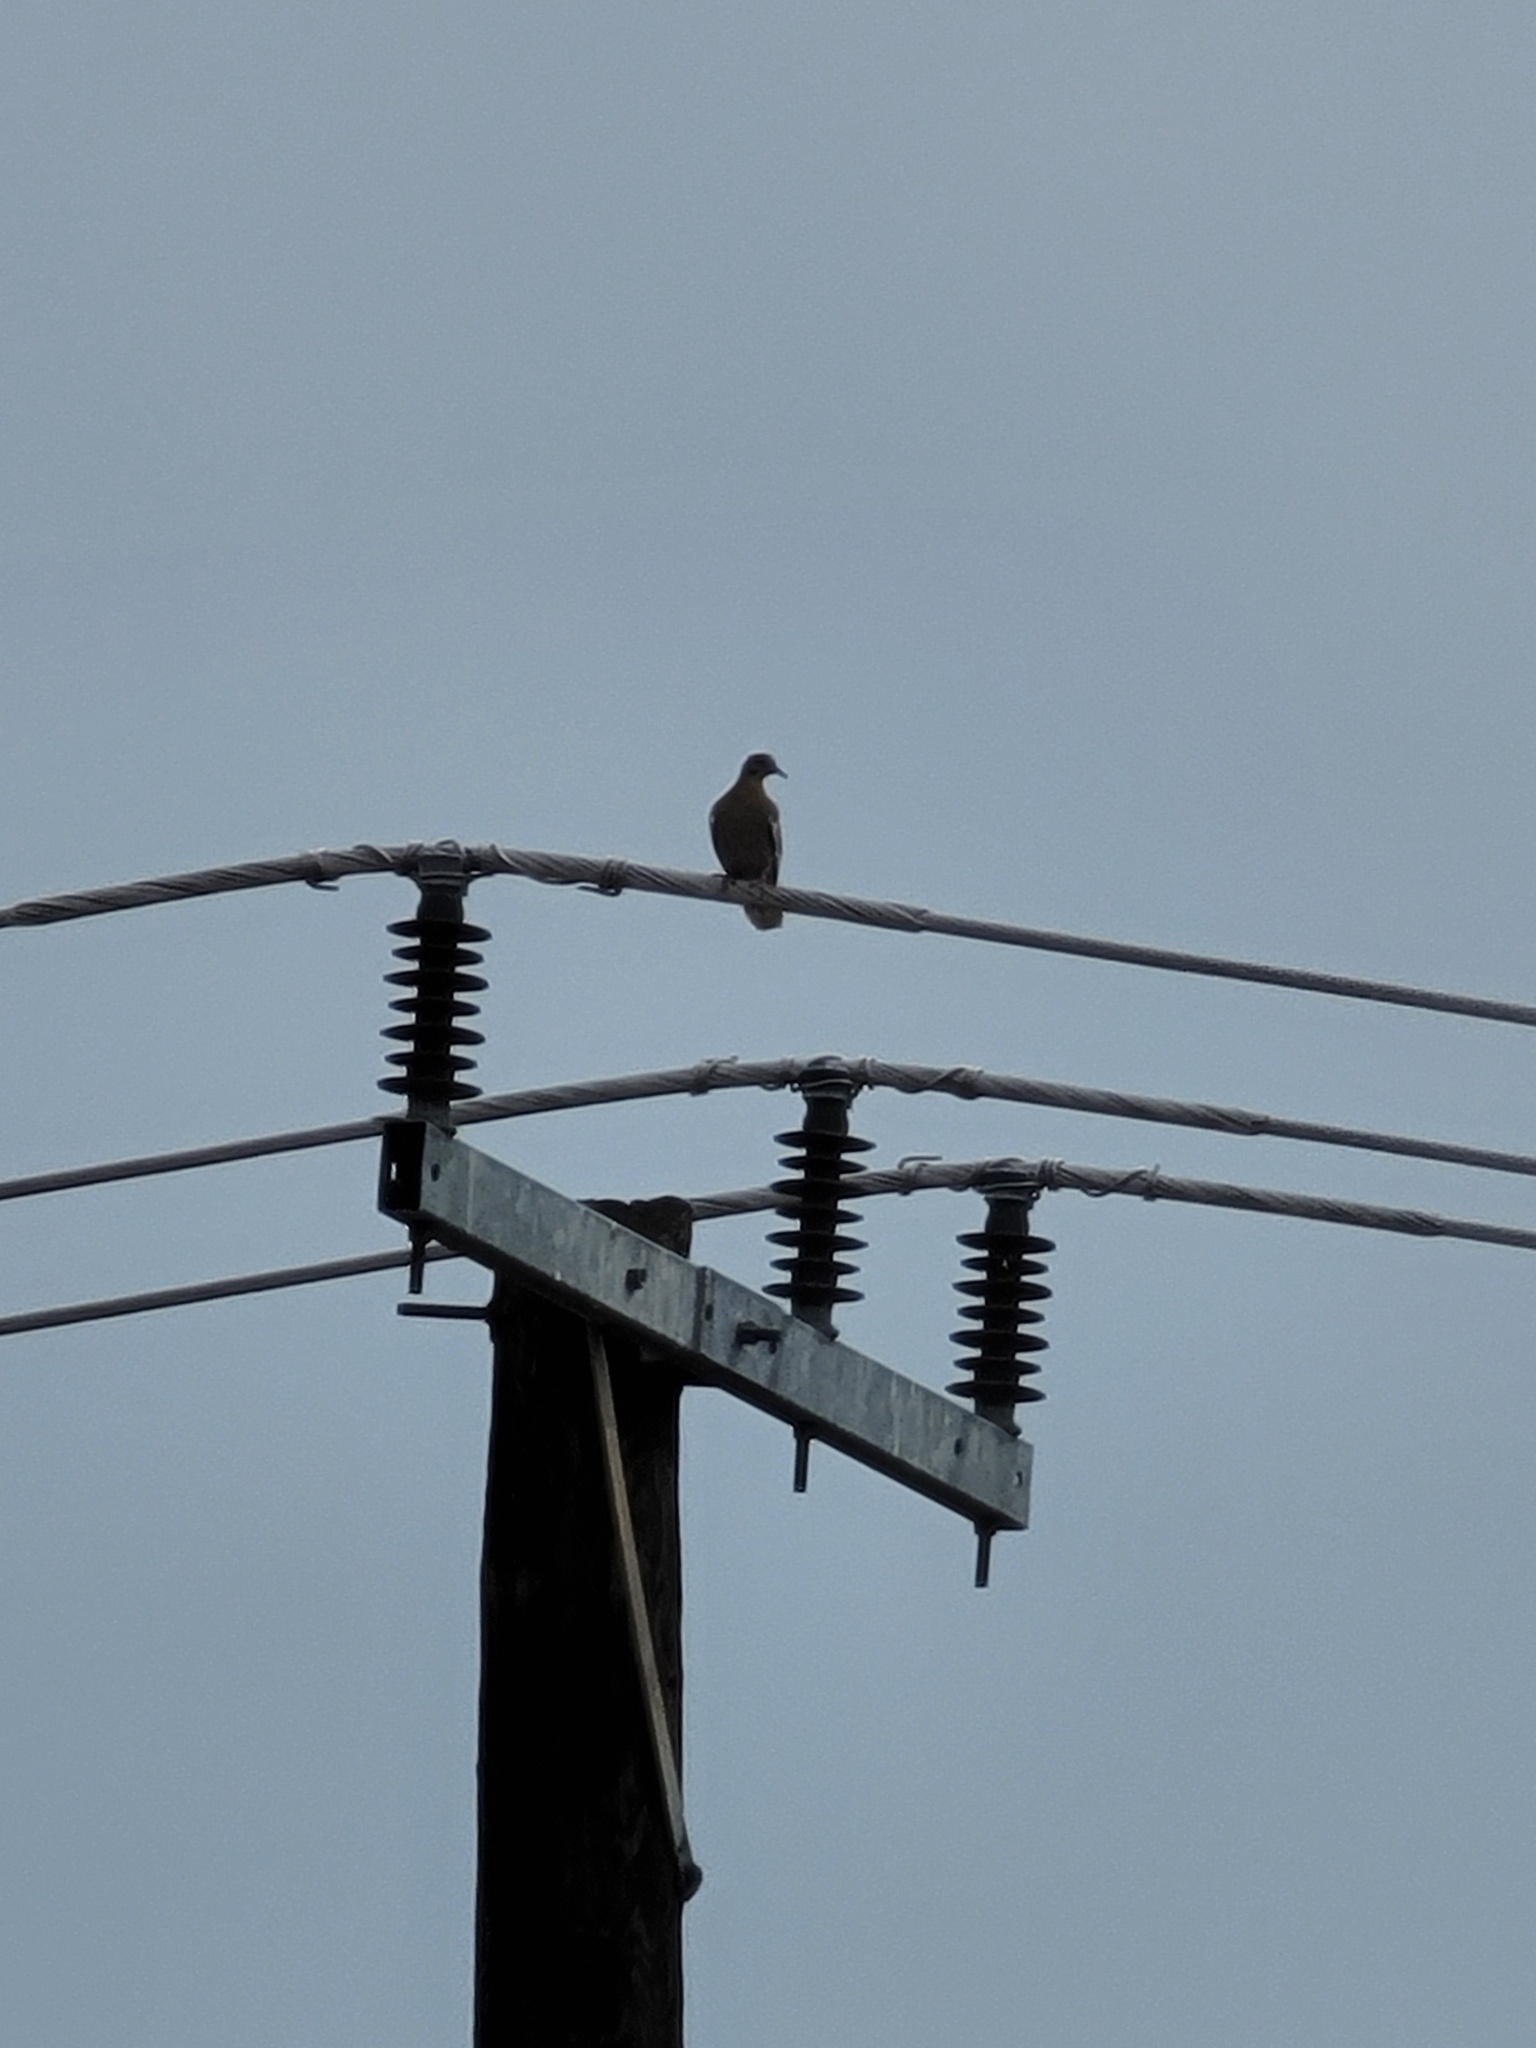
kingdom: Animalia
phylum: Chordata
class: Aves
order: Columbiformes
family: Columbidae
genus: Zenaida
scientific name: Zenaida asiatica
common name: White-winged dove
